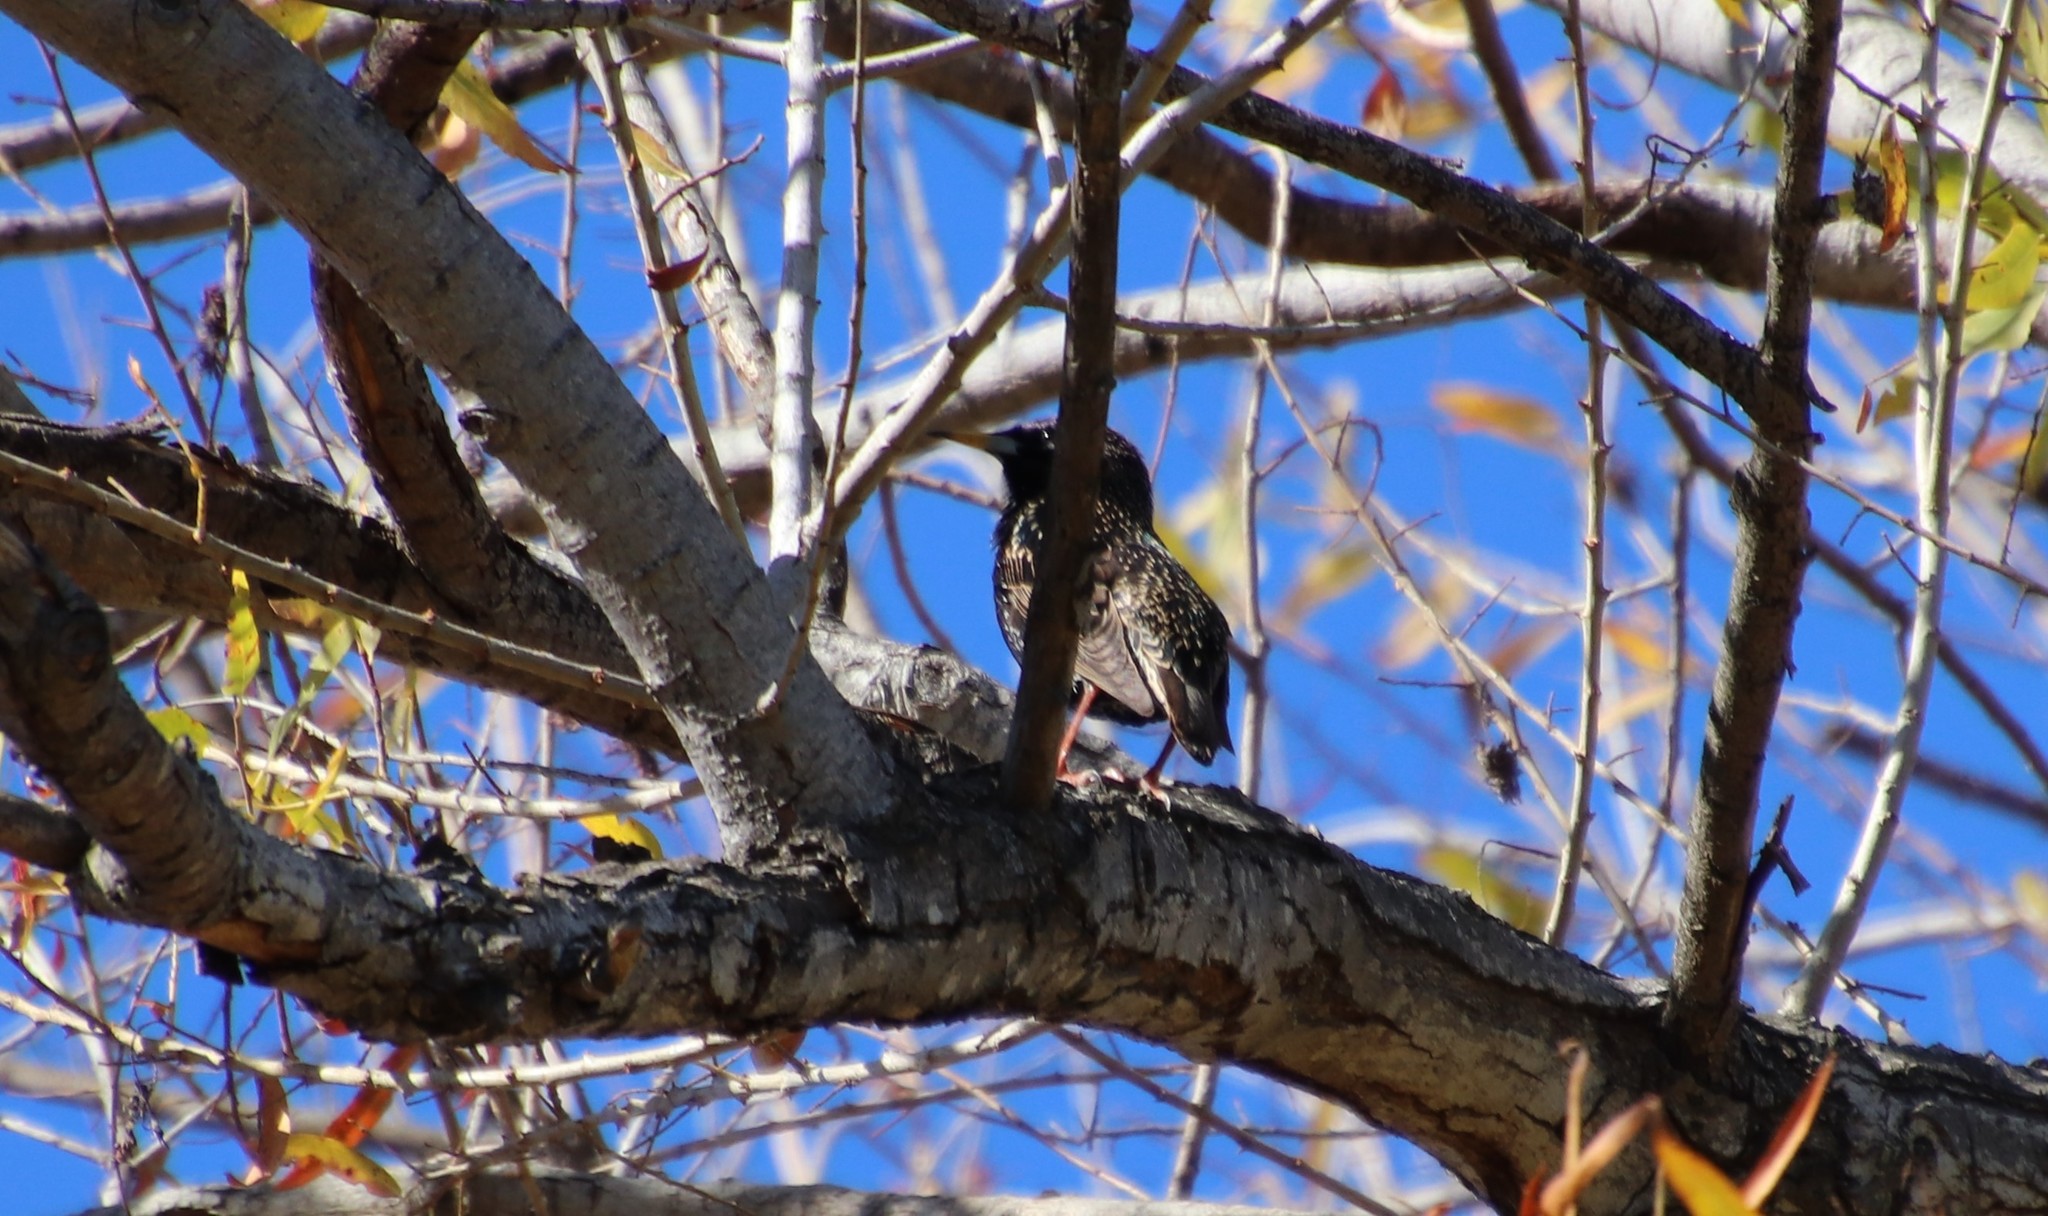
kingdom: Animalia
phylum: Chordata
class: Aves
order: Passeriformes
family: Sturnidae
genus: Sturnus
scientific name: Sturnus vulgaris
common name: Common starling
